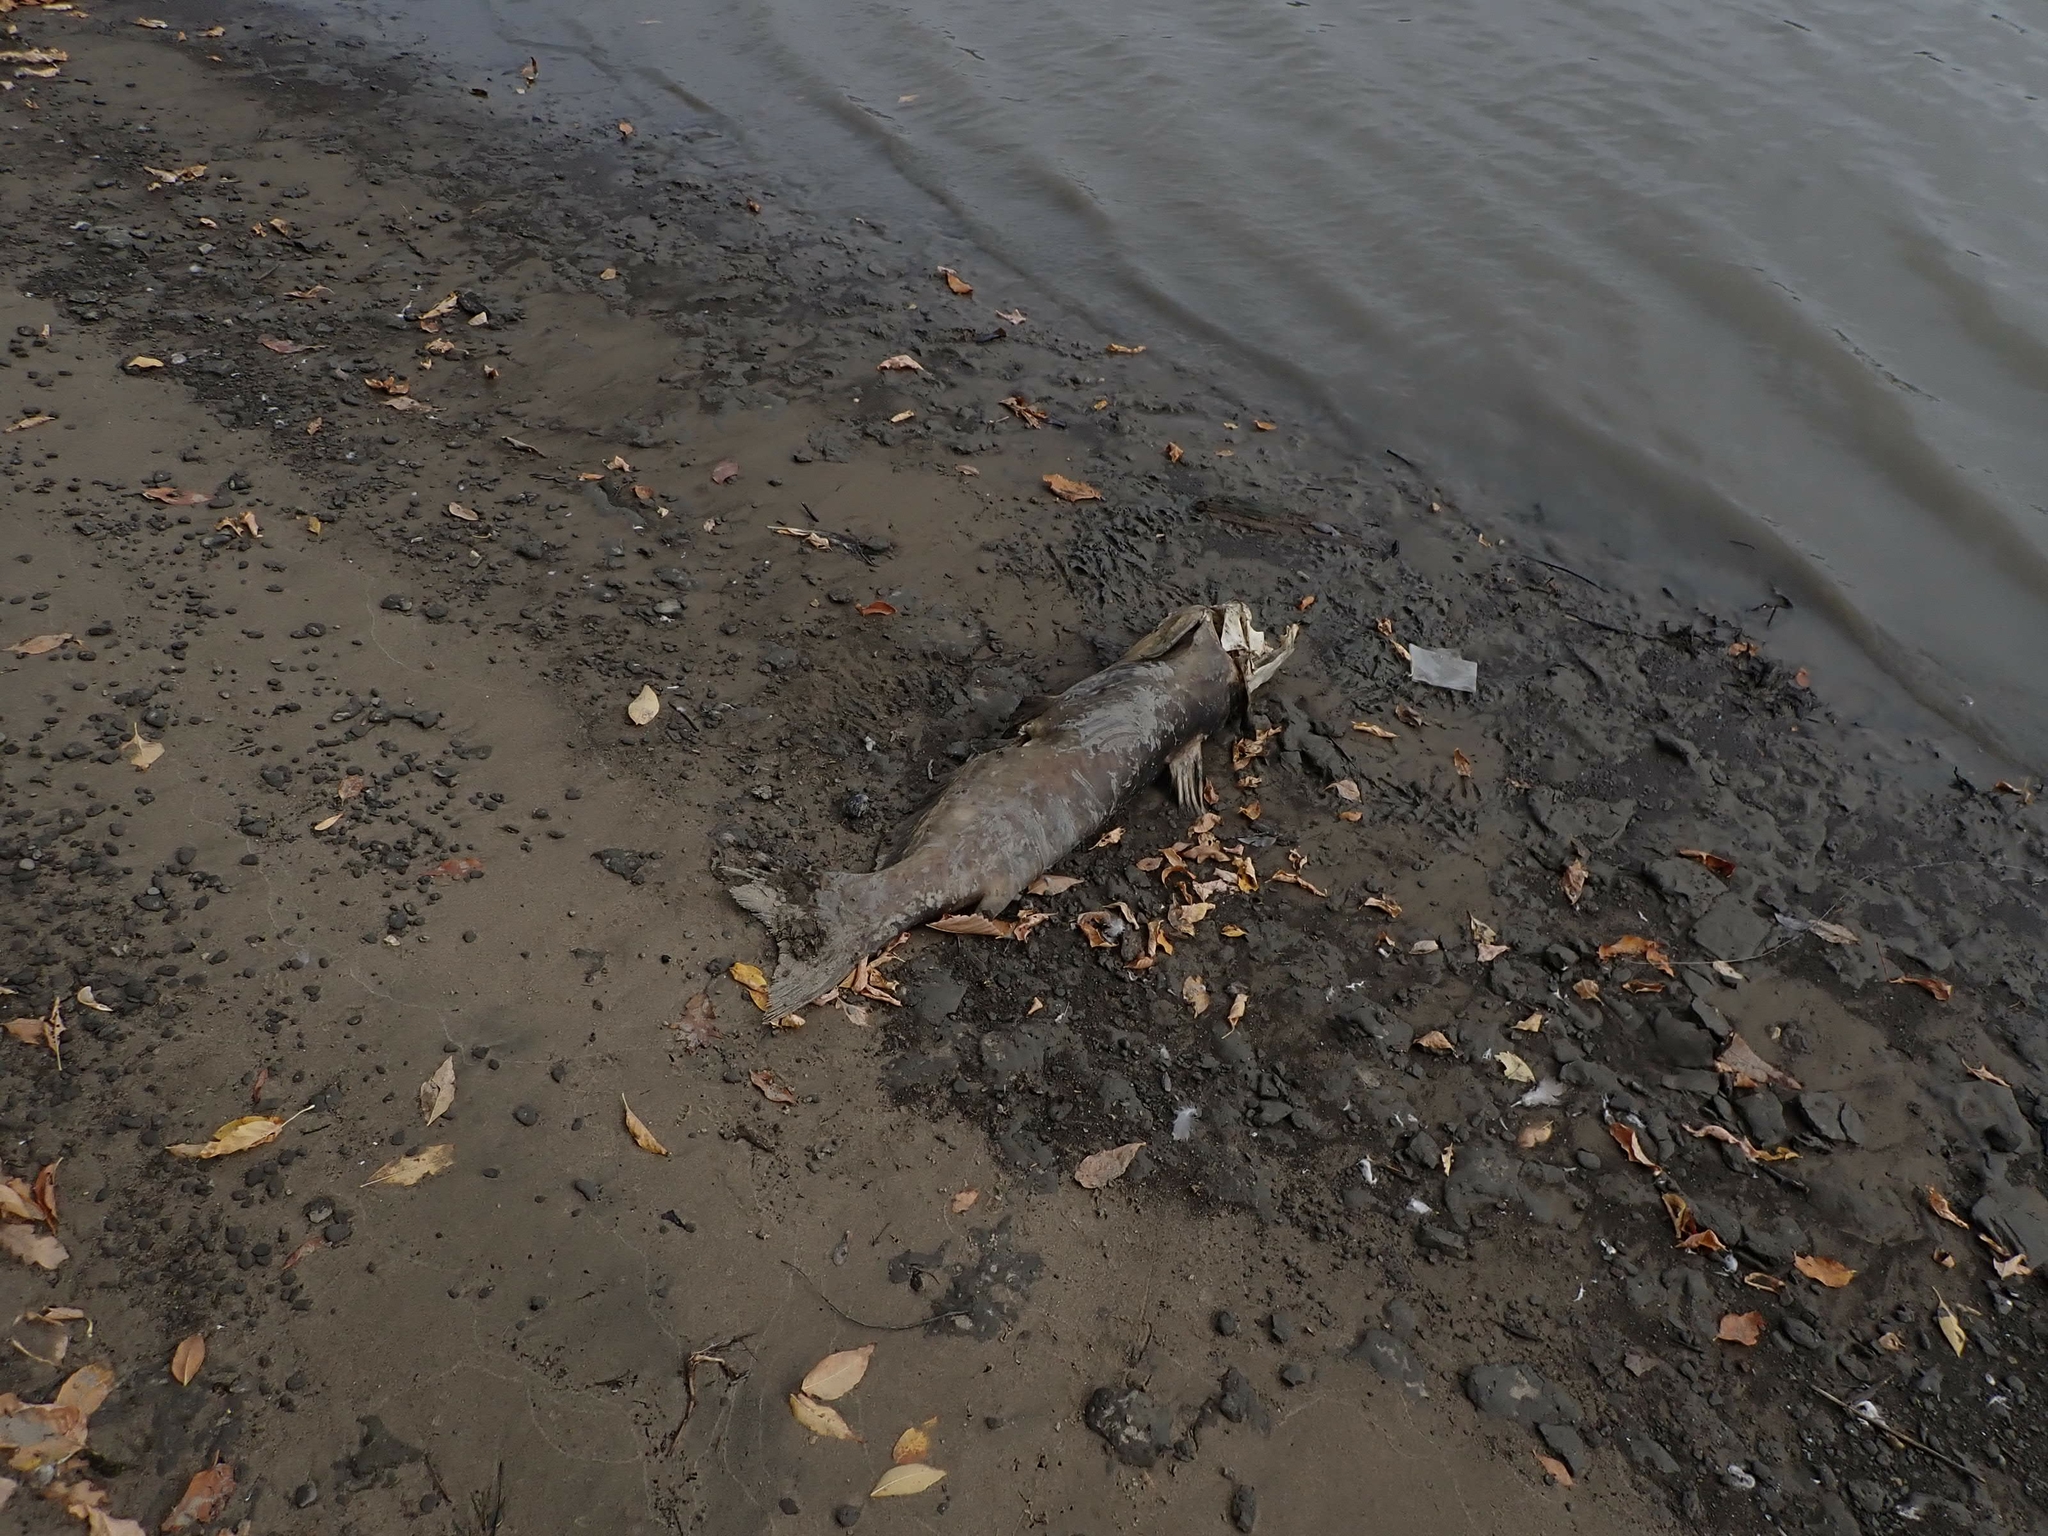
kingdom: Animalia
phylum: Chordata
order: Siluriformes
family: Ictaluridae
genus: Ictalurus
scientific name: Ictalurus punctatus
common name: Channel catfish
